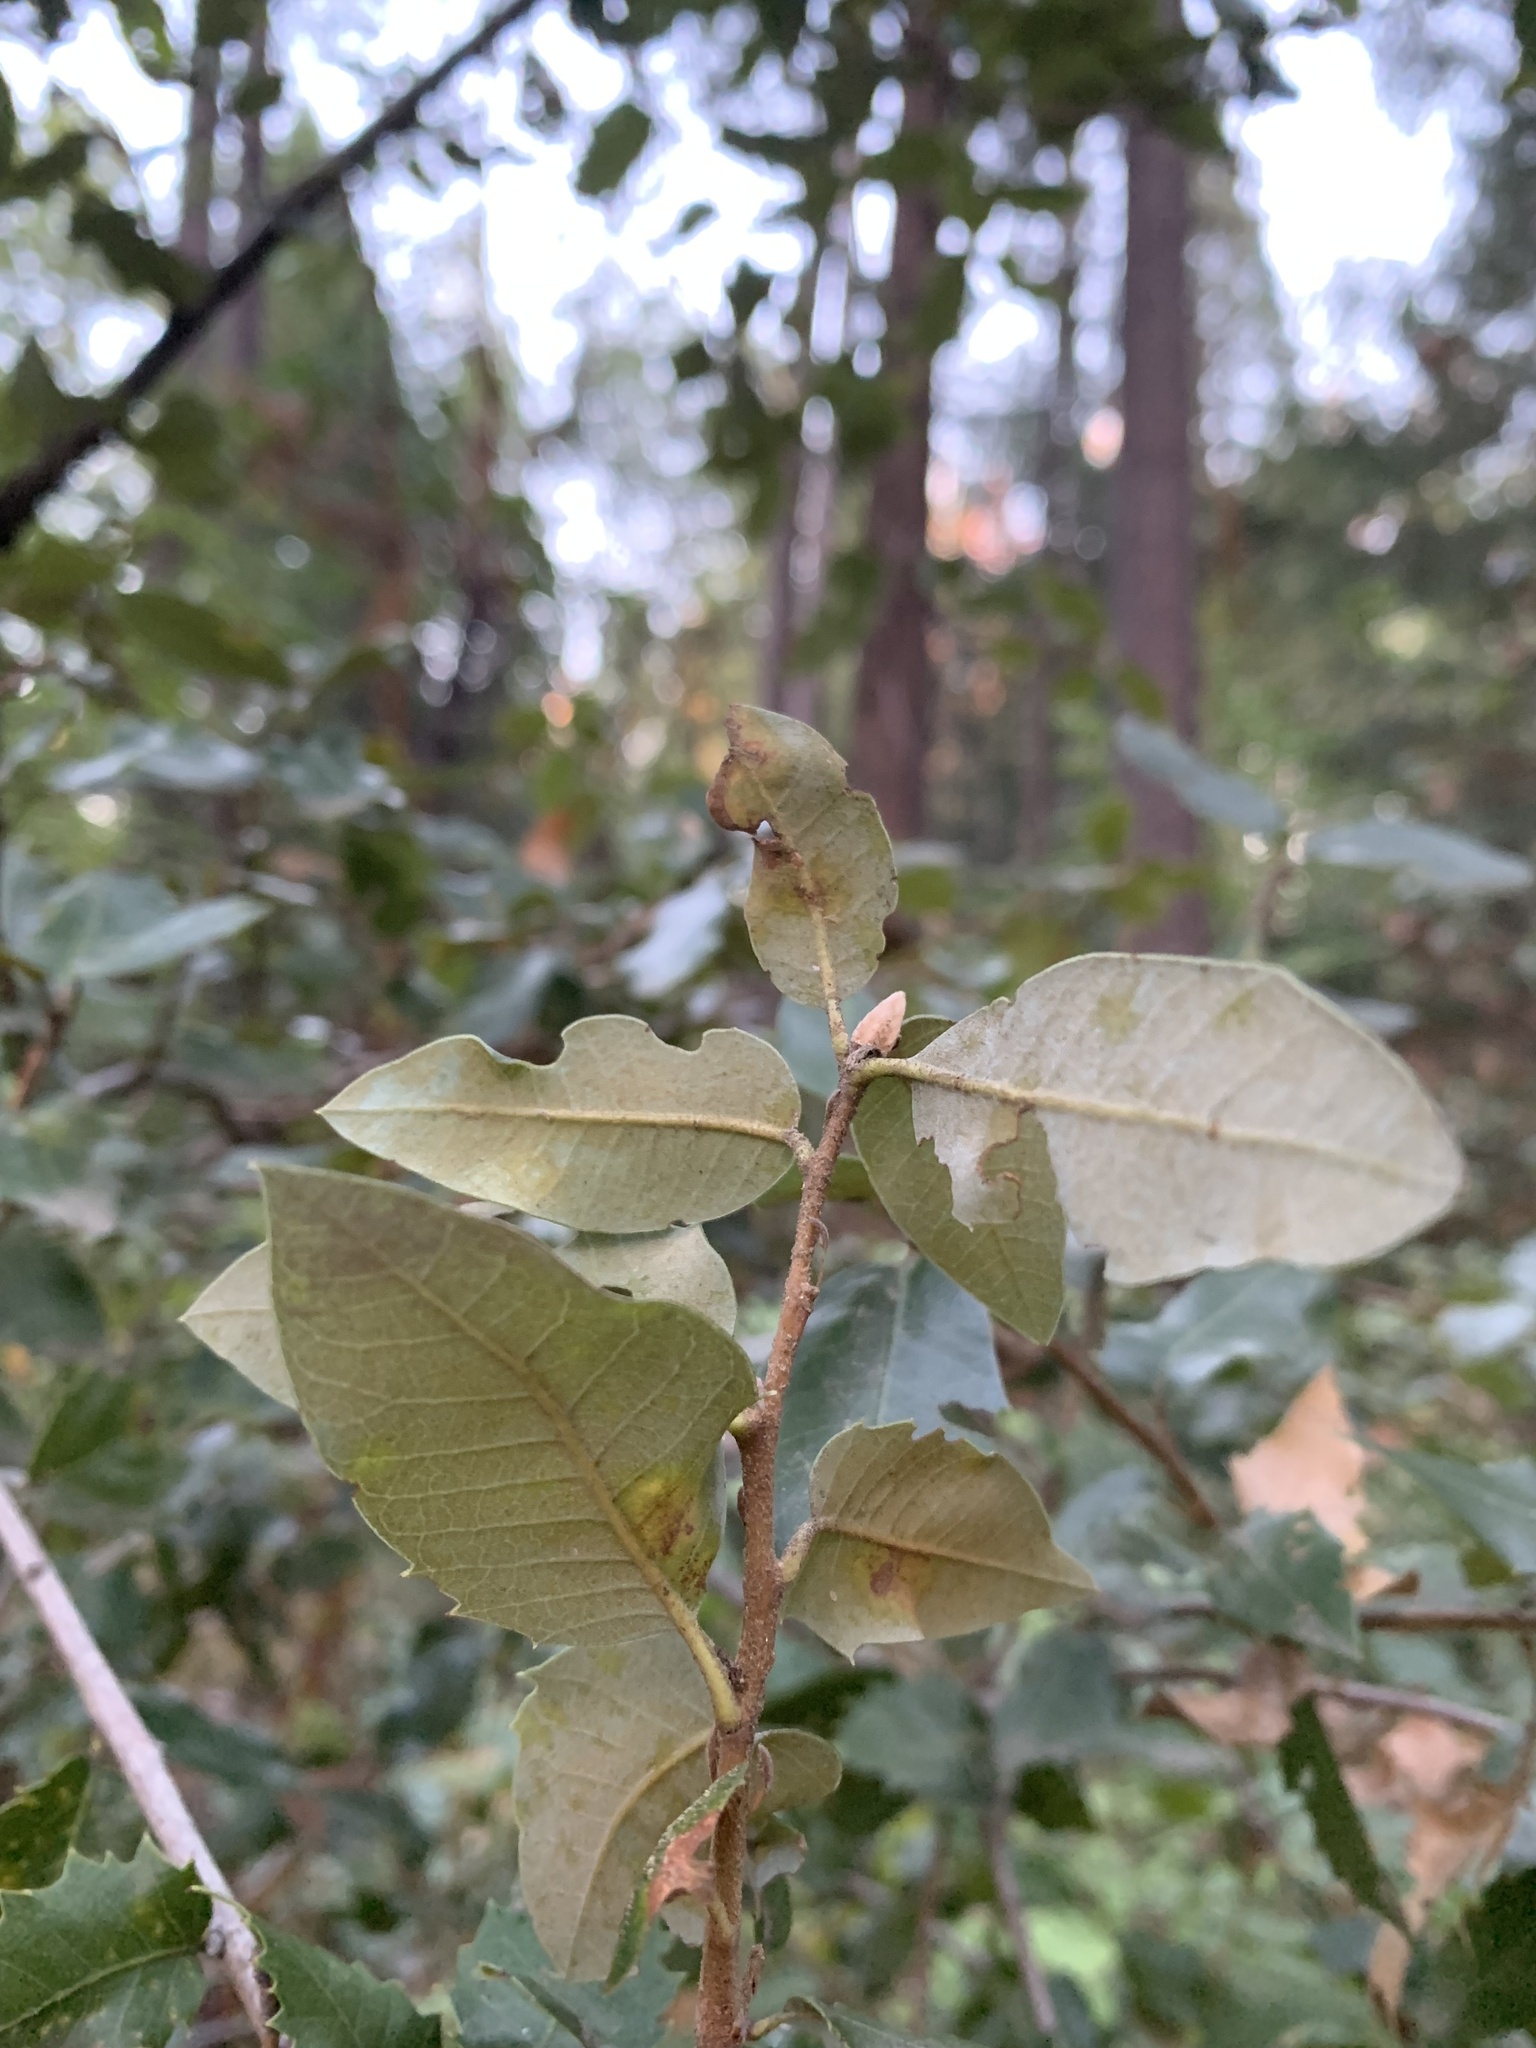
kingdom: Plantae
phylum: Tracheophyta
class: Magnoliopsida
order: Fagales
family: Fagaceae
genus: Quercus
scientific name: Quercus chrysolepis
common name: Canyon live oak
